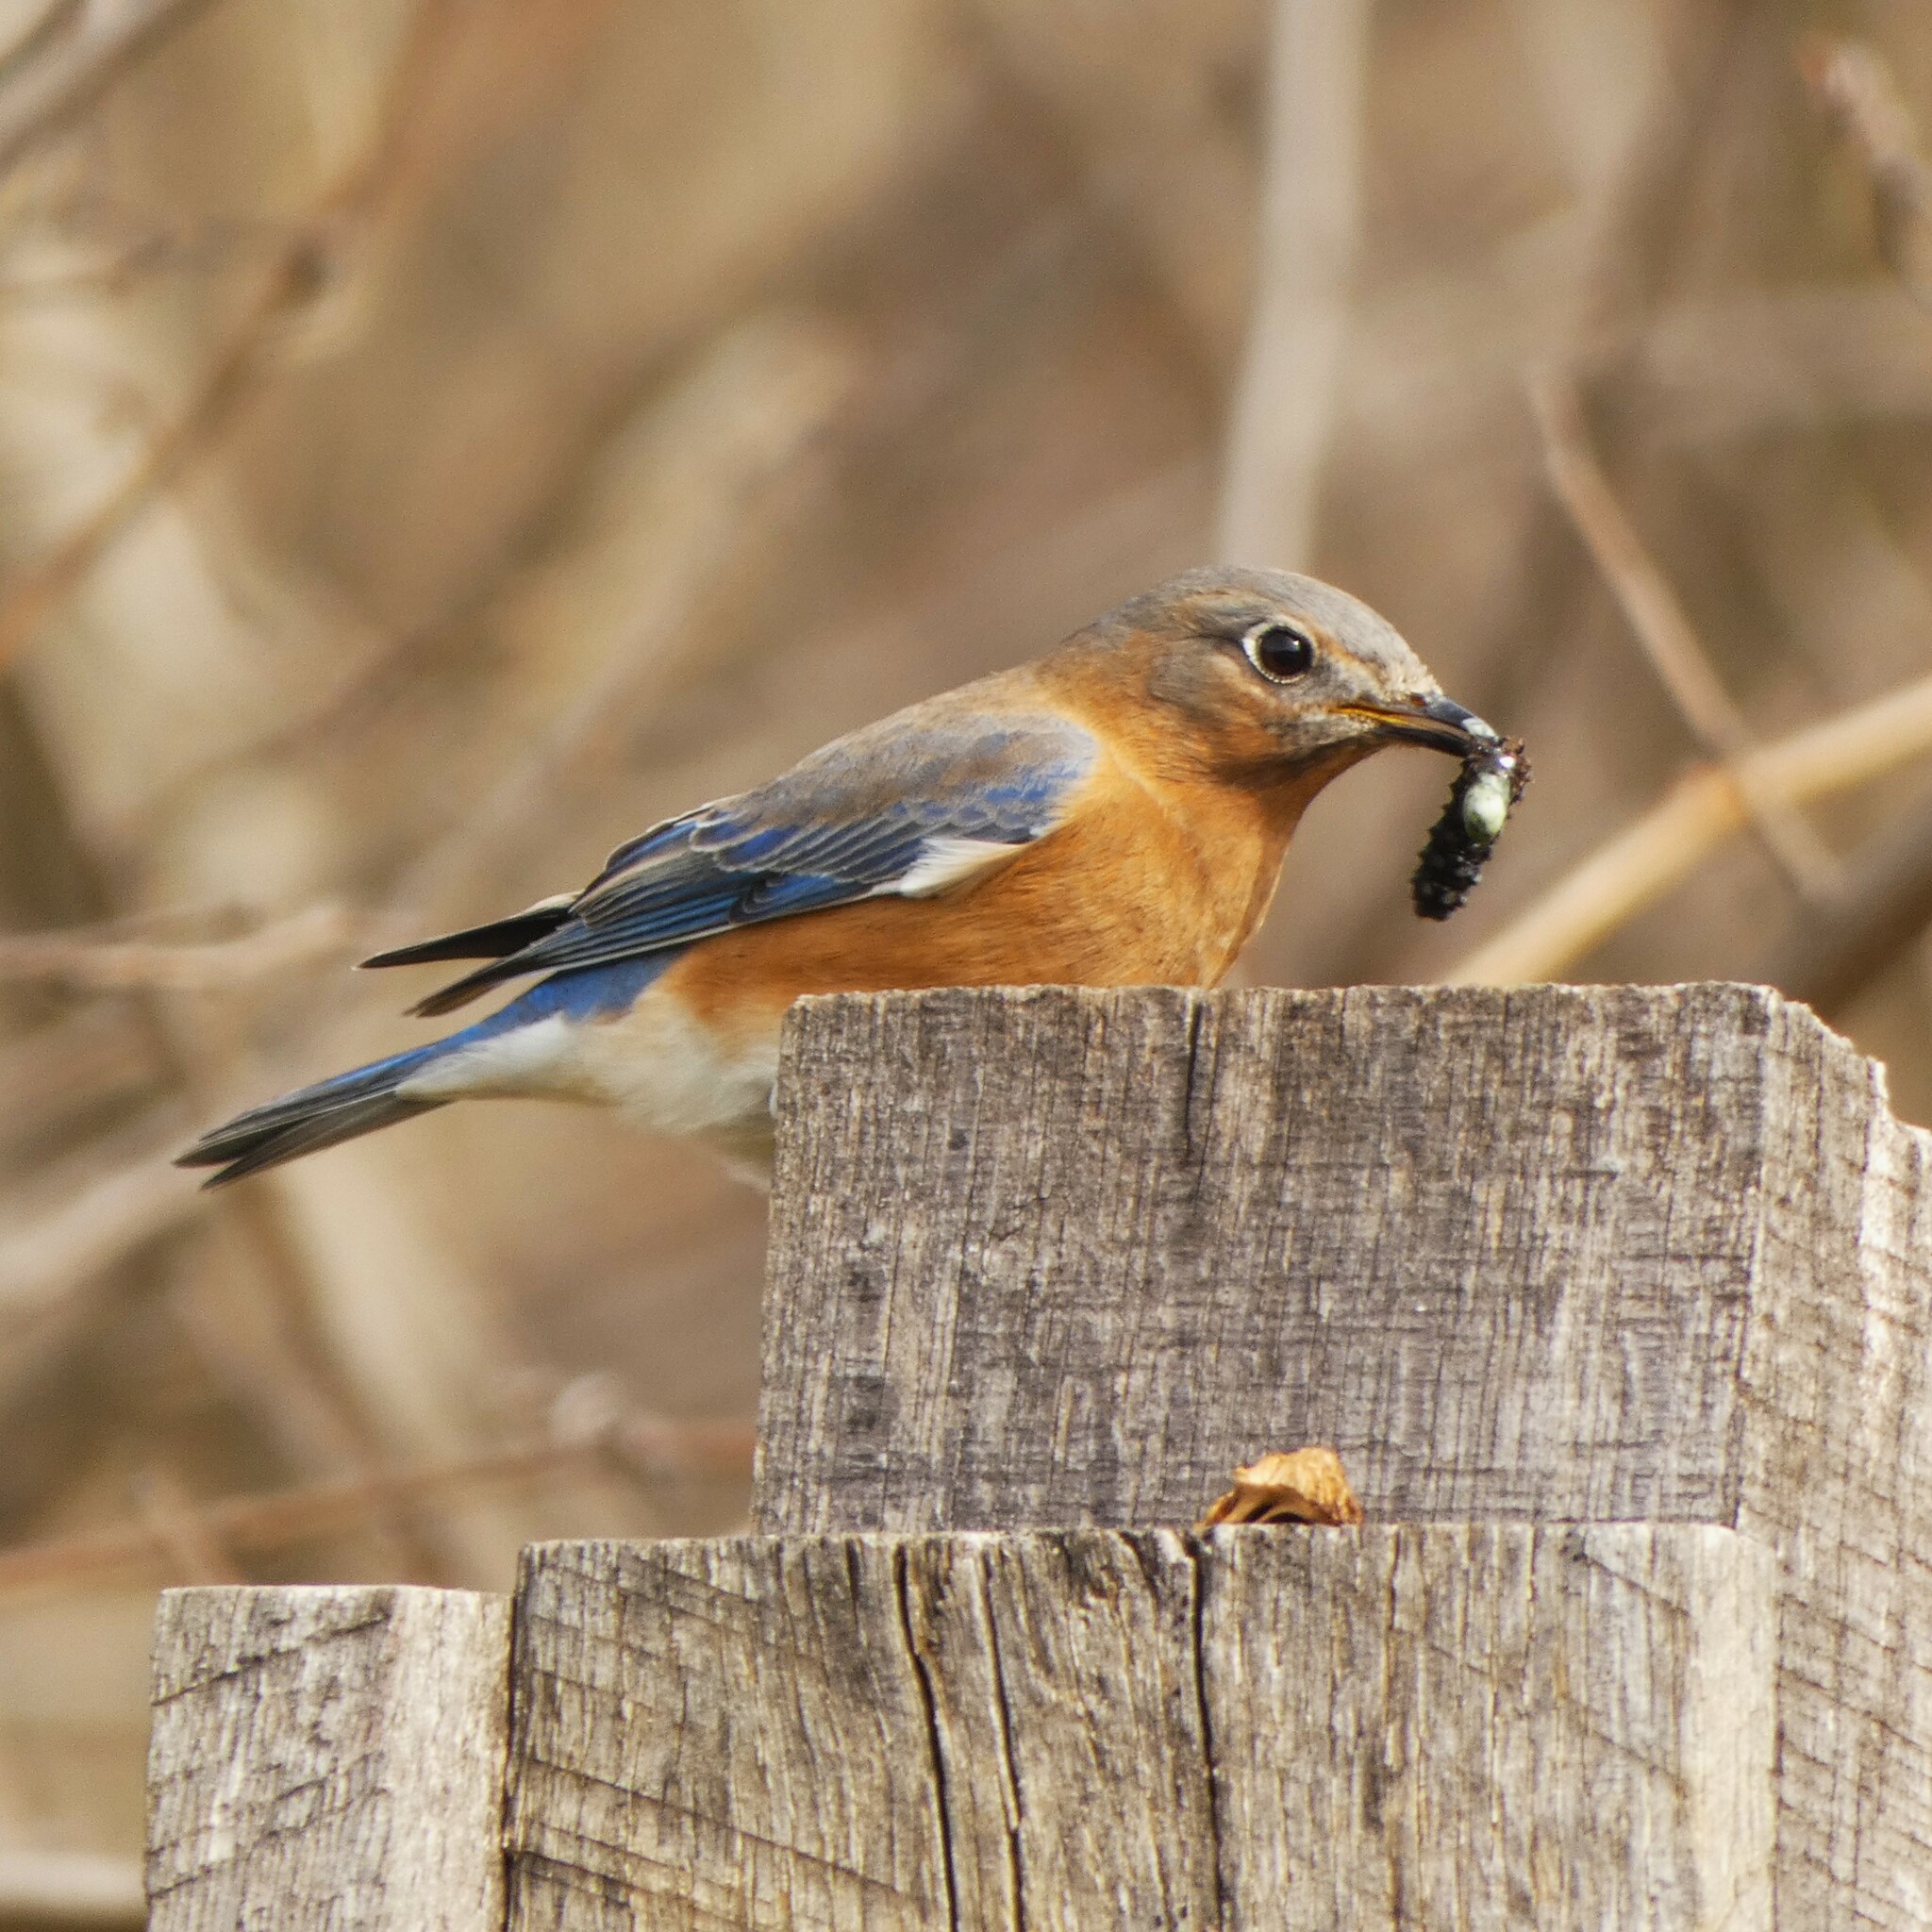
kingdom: Animalia
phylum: Chordata
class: Aves
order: Passeriformes
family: Turdidae
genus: Sialia
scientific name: Sialia sialis
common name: Eastern bluebird
